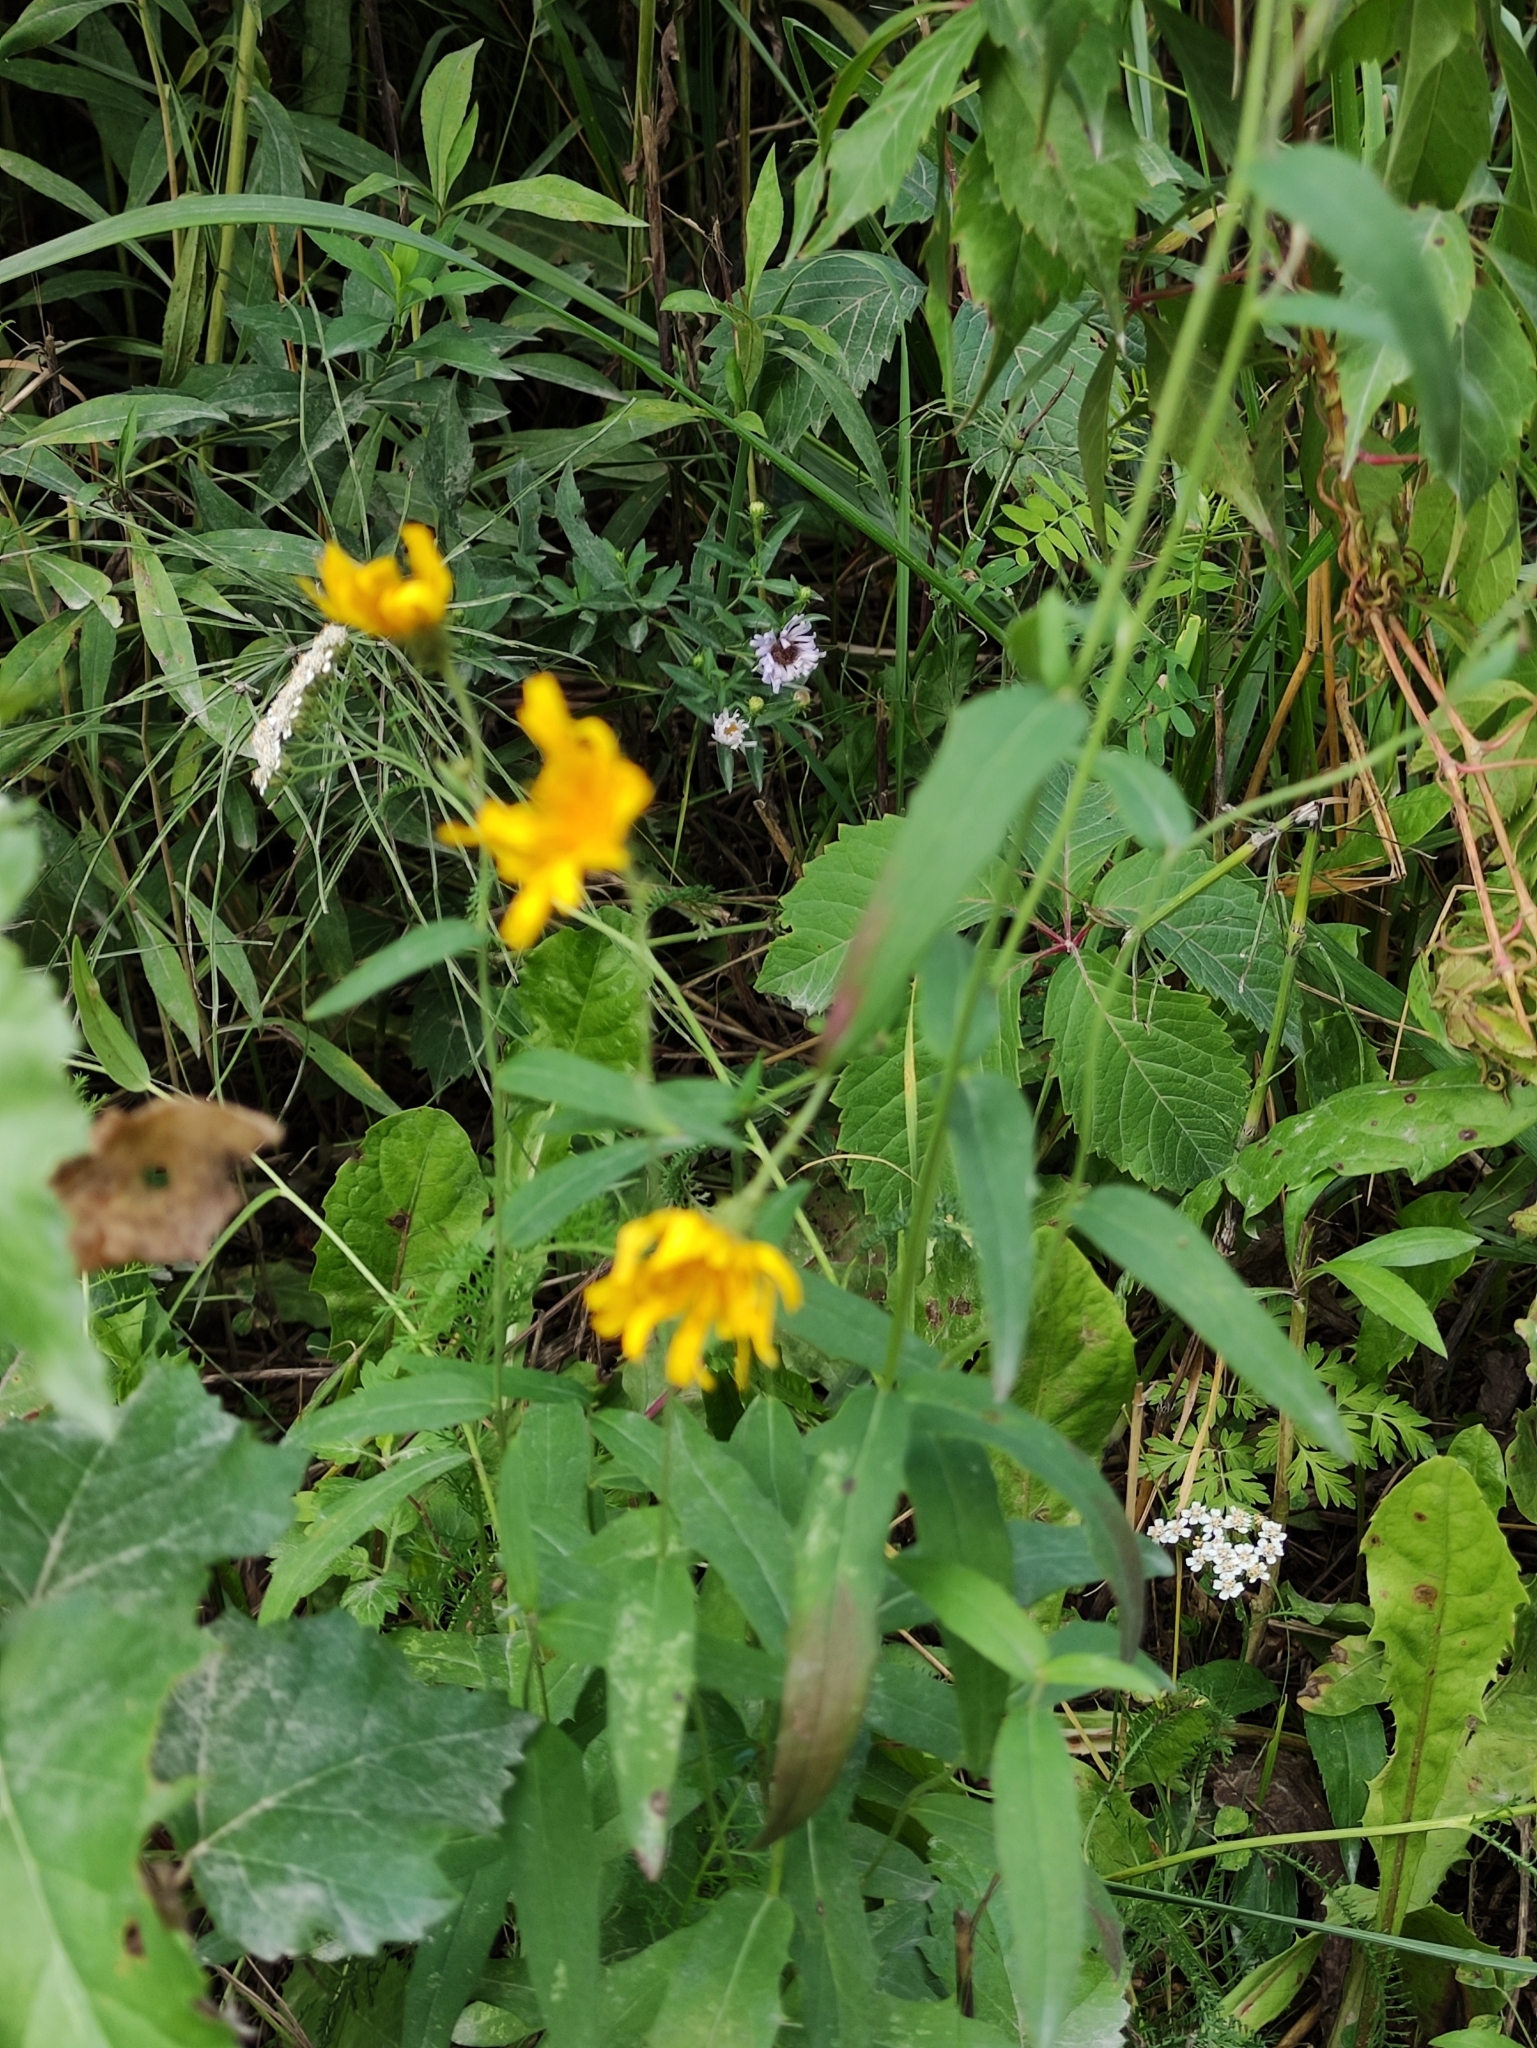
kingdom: Plantae
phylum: Tracheophyta
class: Magnoliopsida
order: Asterales
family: Asteraceae
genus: Hieracium
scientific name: Hieracium umbellatum
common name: Northern hawkweed
